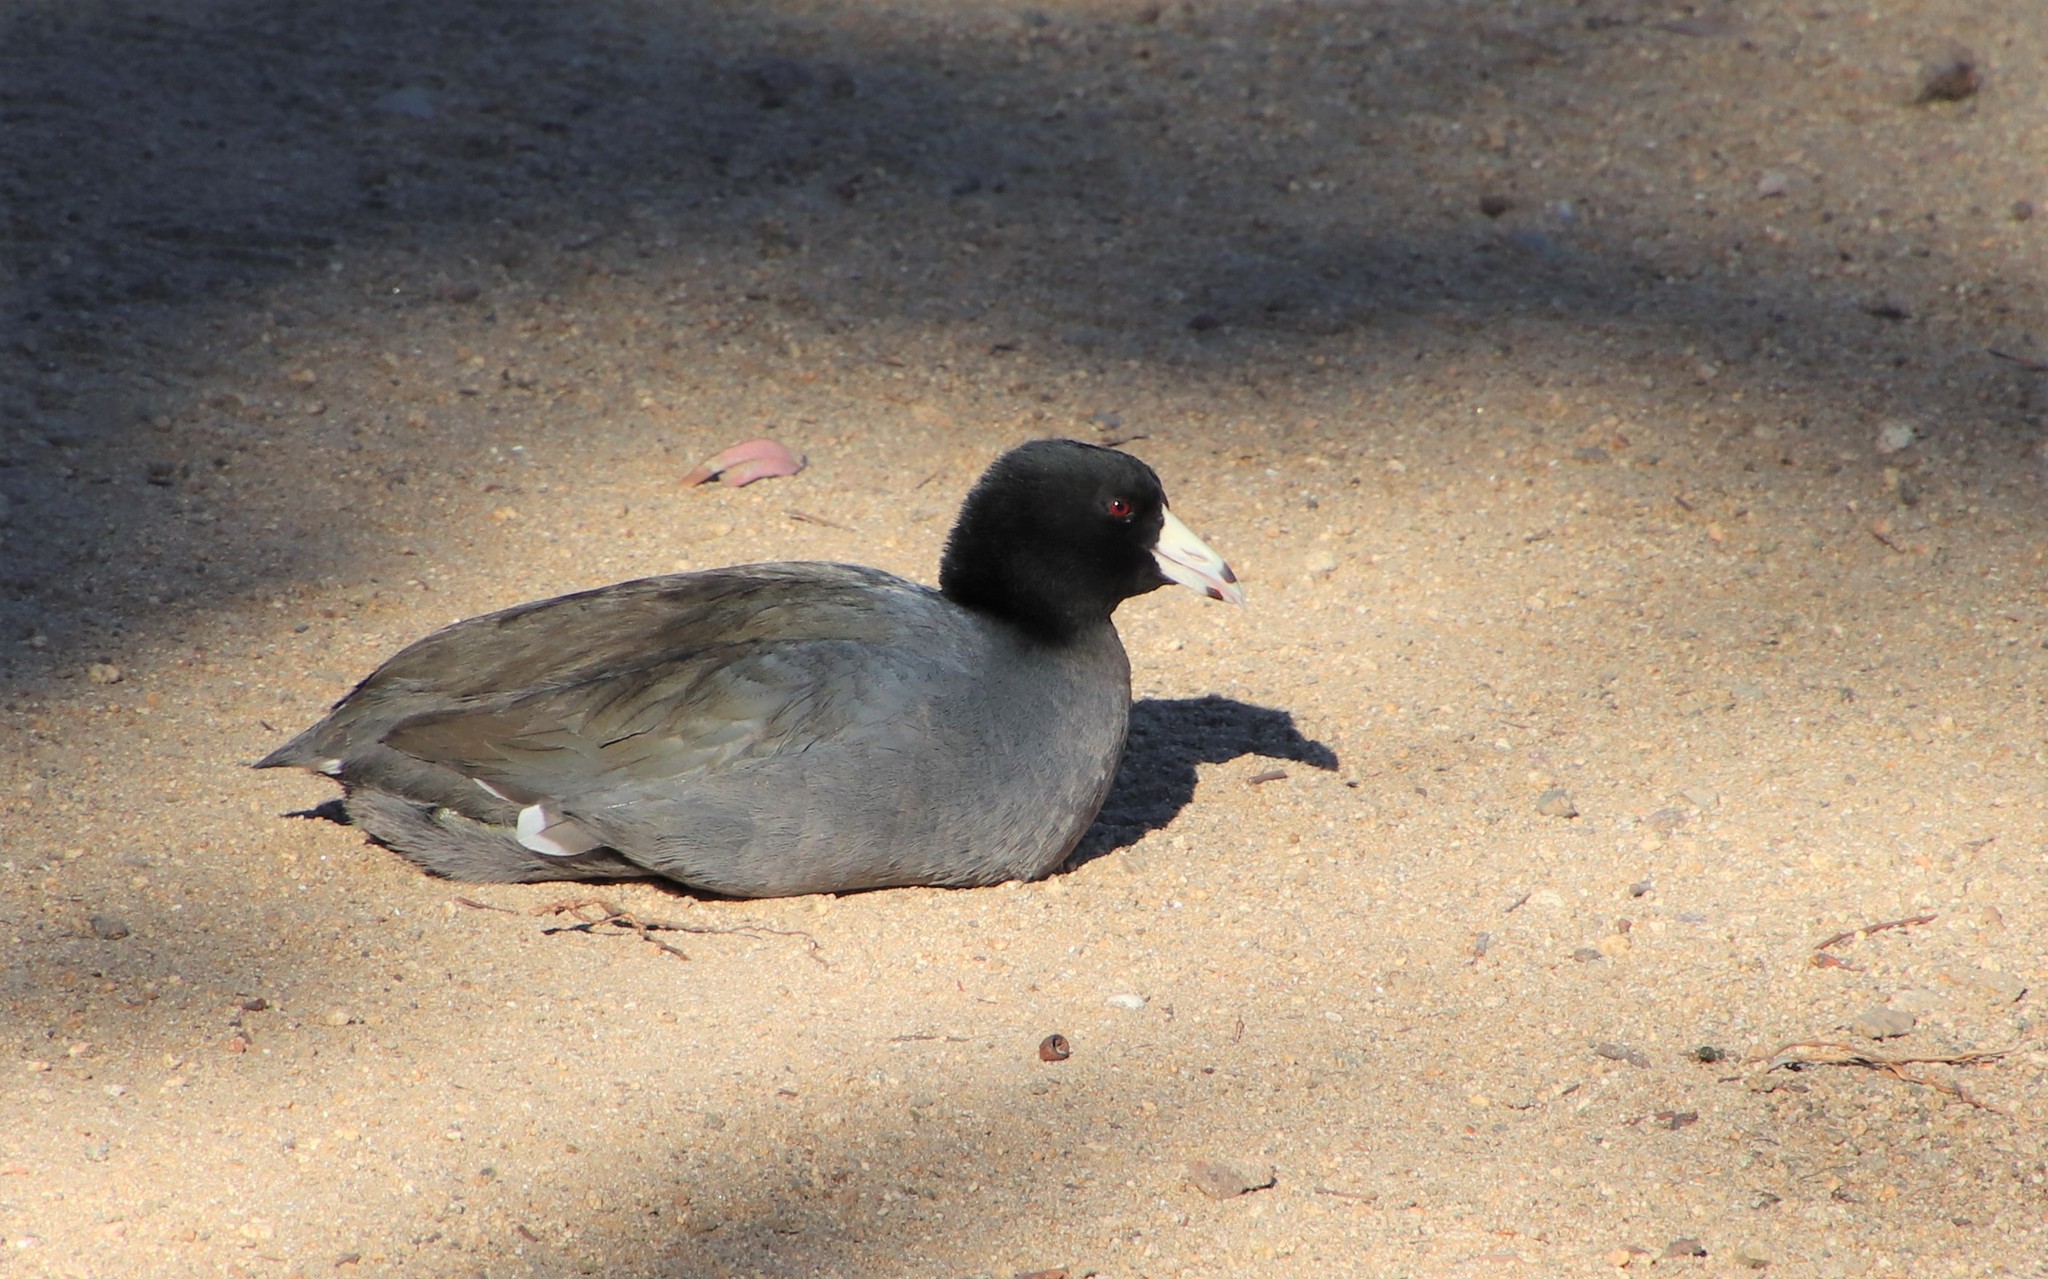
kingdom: Animalia
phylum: Chordata
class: Aves
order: Gruiformes
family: Rallidae
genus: Fulica
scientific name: Fulica americana
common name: American coot
